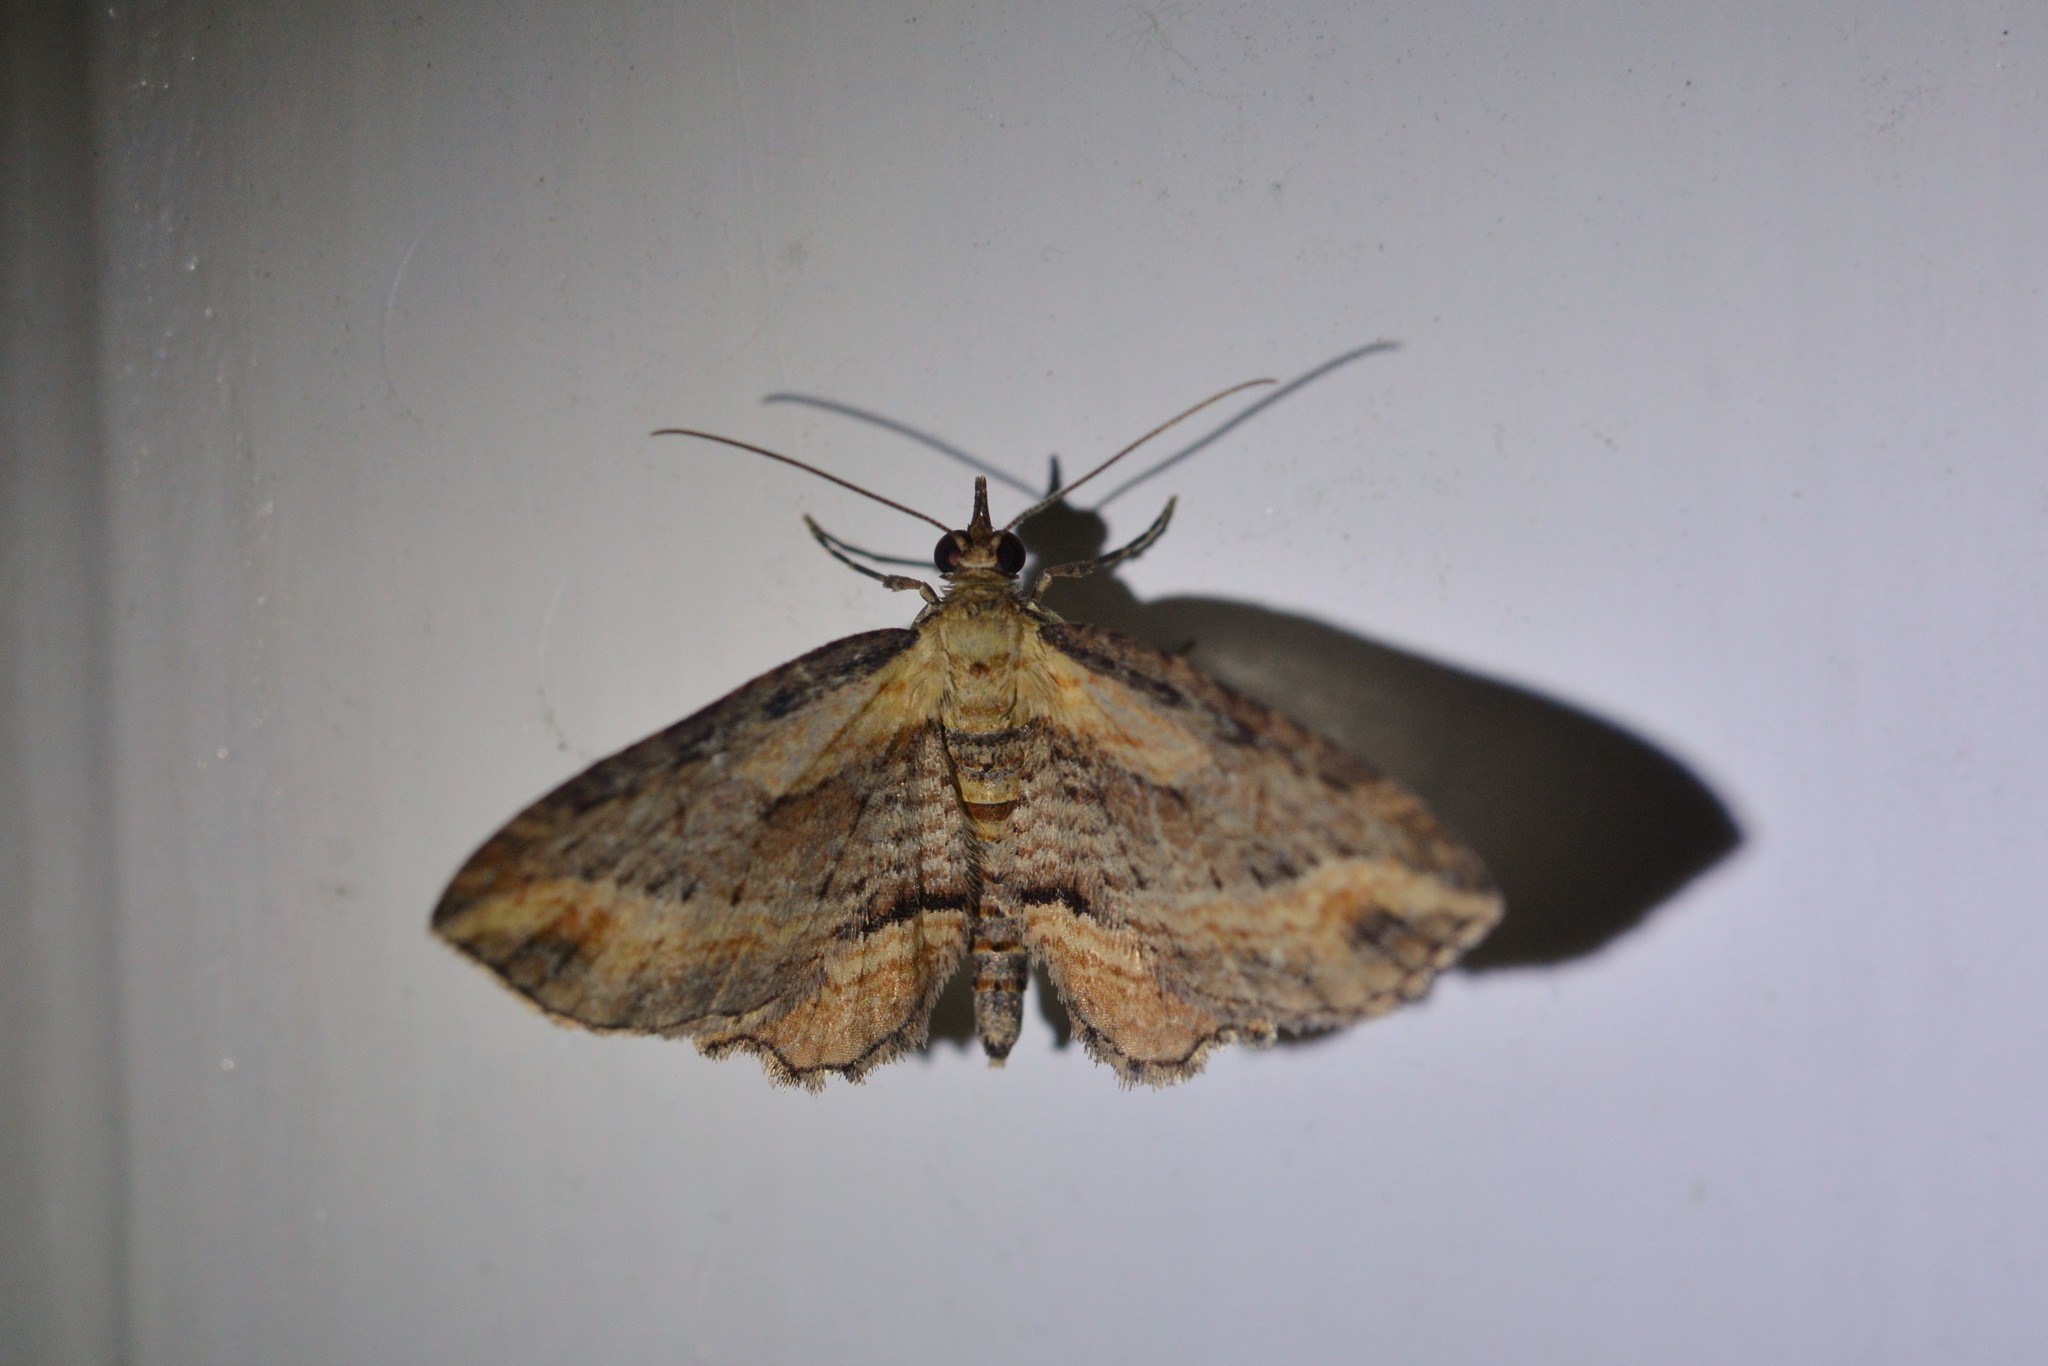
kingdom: Animalia
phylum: Arthropoda
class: Insecta
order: Lepidoptera
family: Geometridae
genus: Chloroclystis
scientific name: Chloroclystis filata
